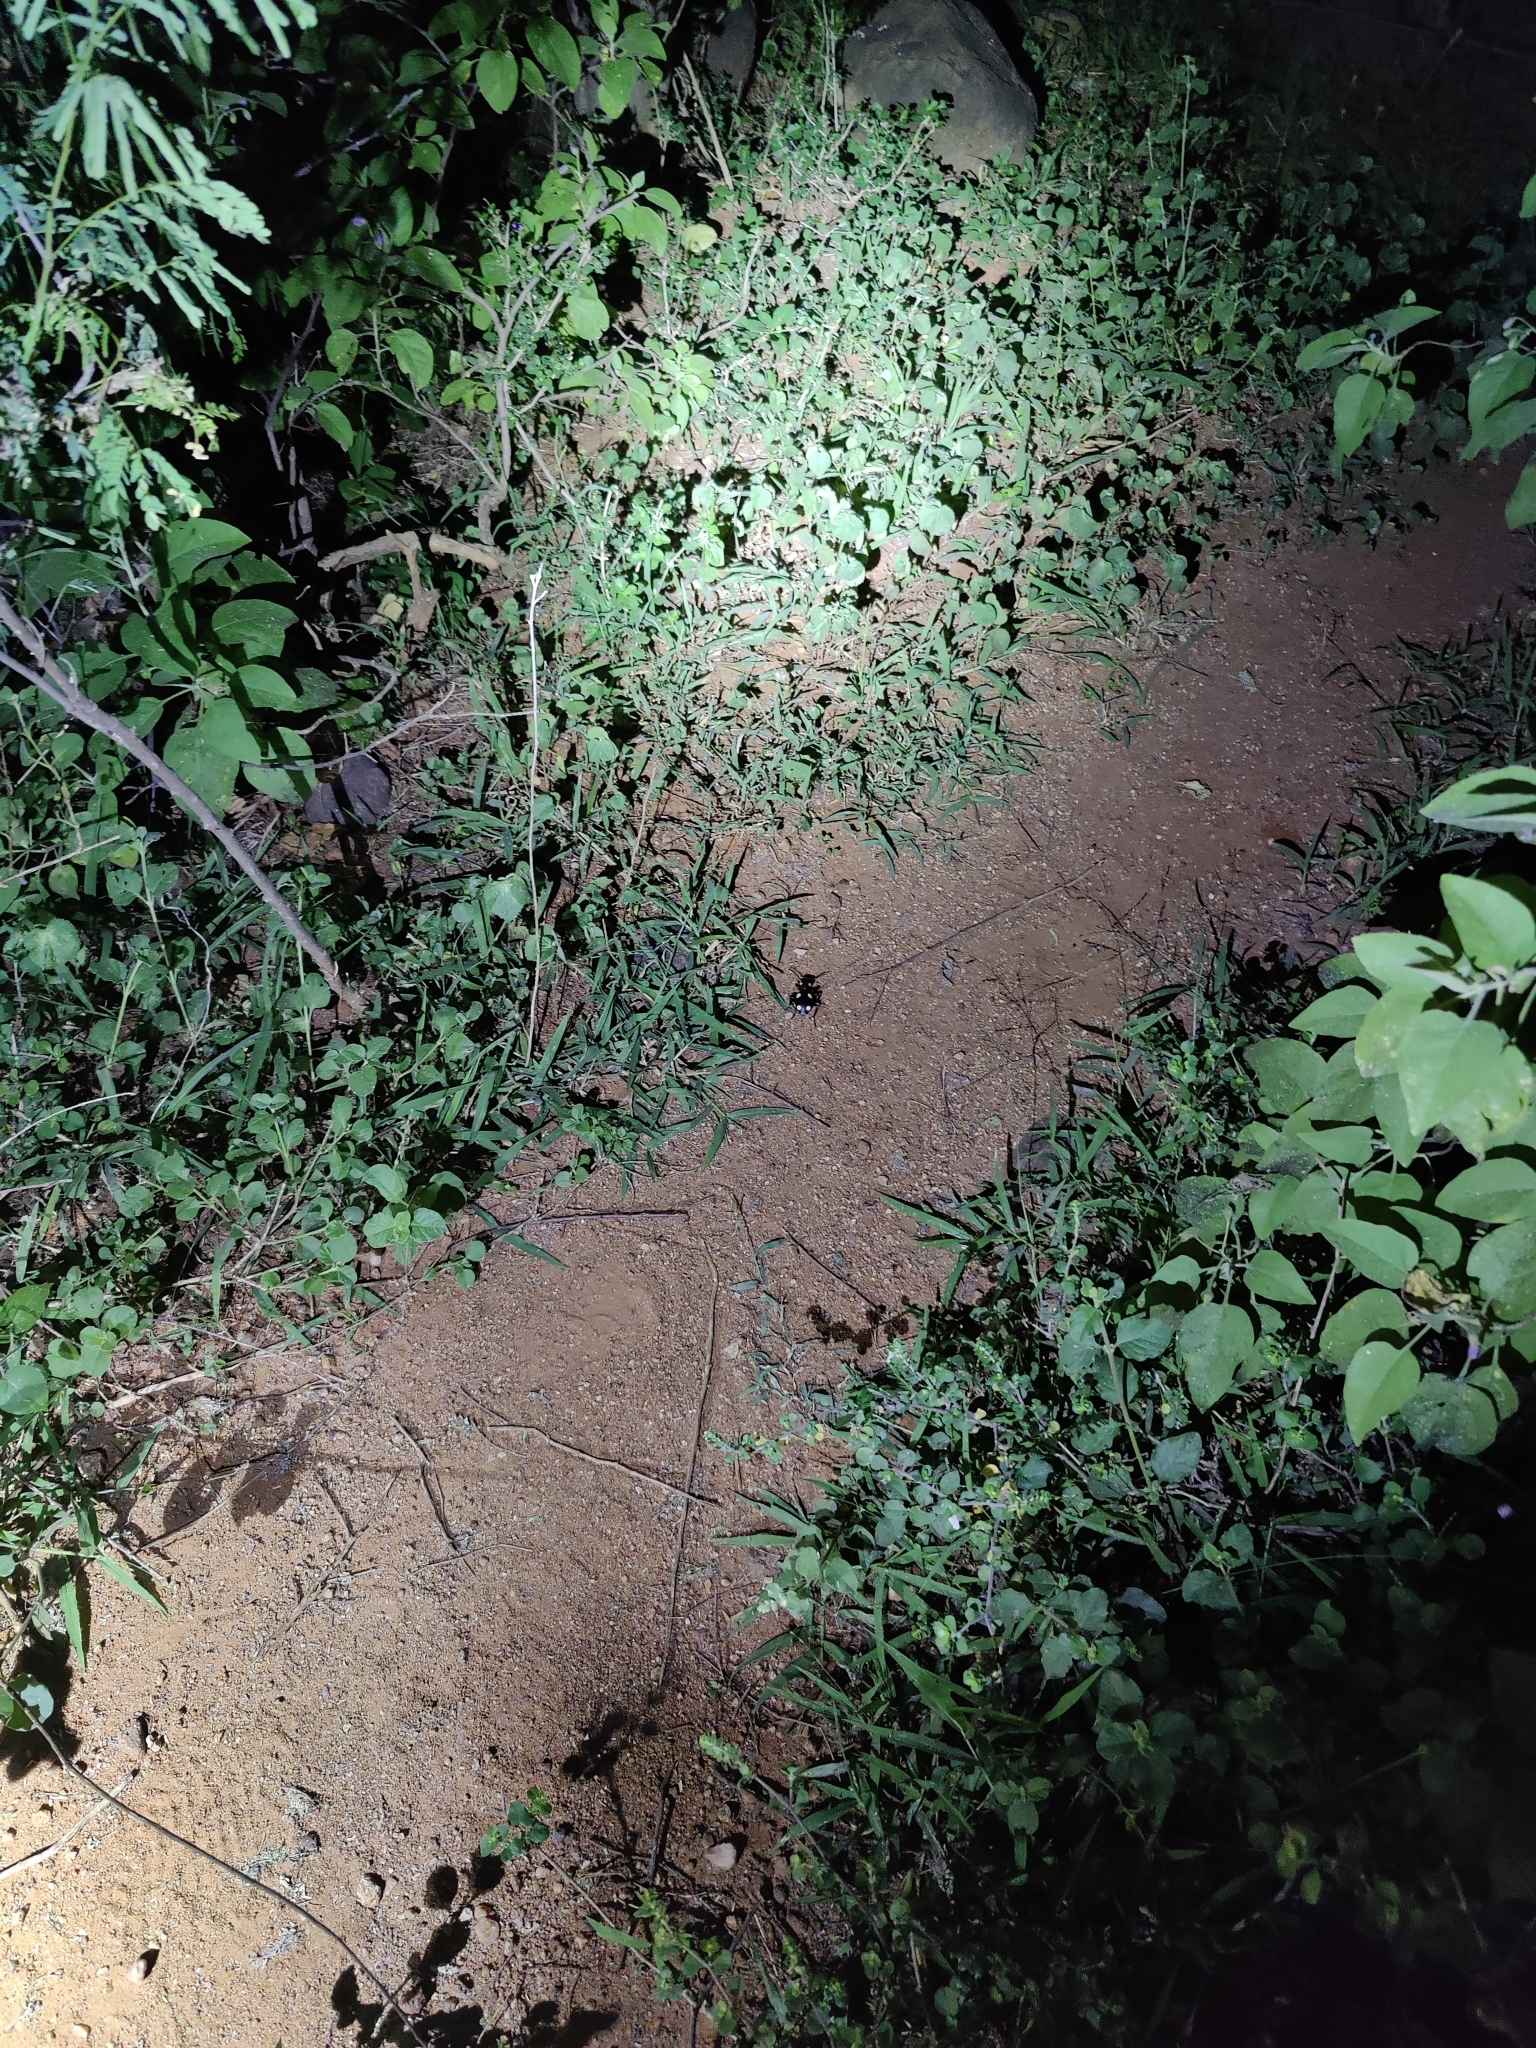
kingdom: Animalia
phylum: Arthropoda
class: Insecta
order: Coleoptera
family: Carabidae
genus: Anthia
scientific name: Anthia sexguttata
